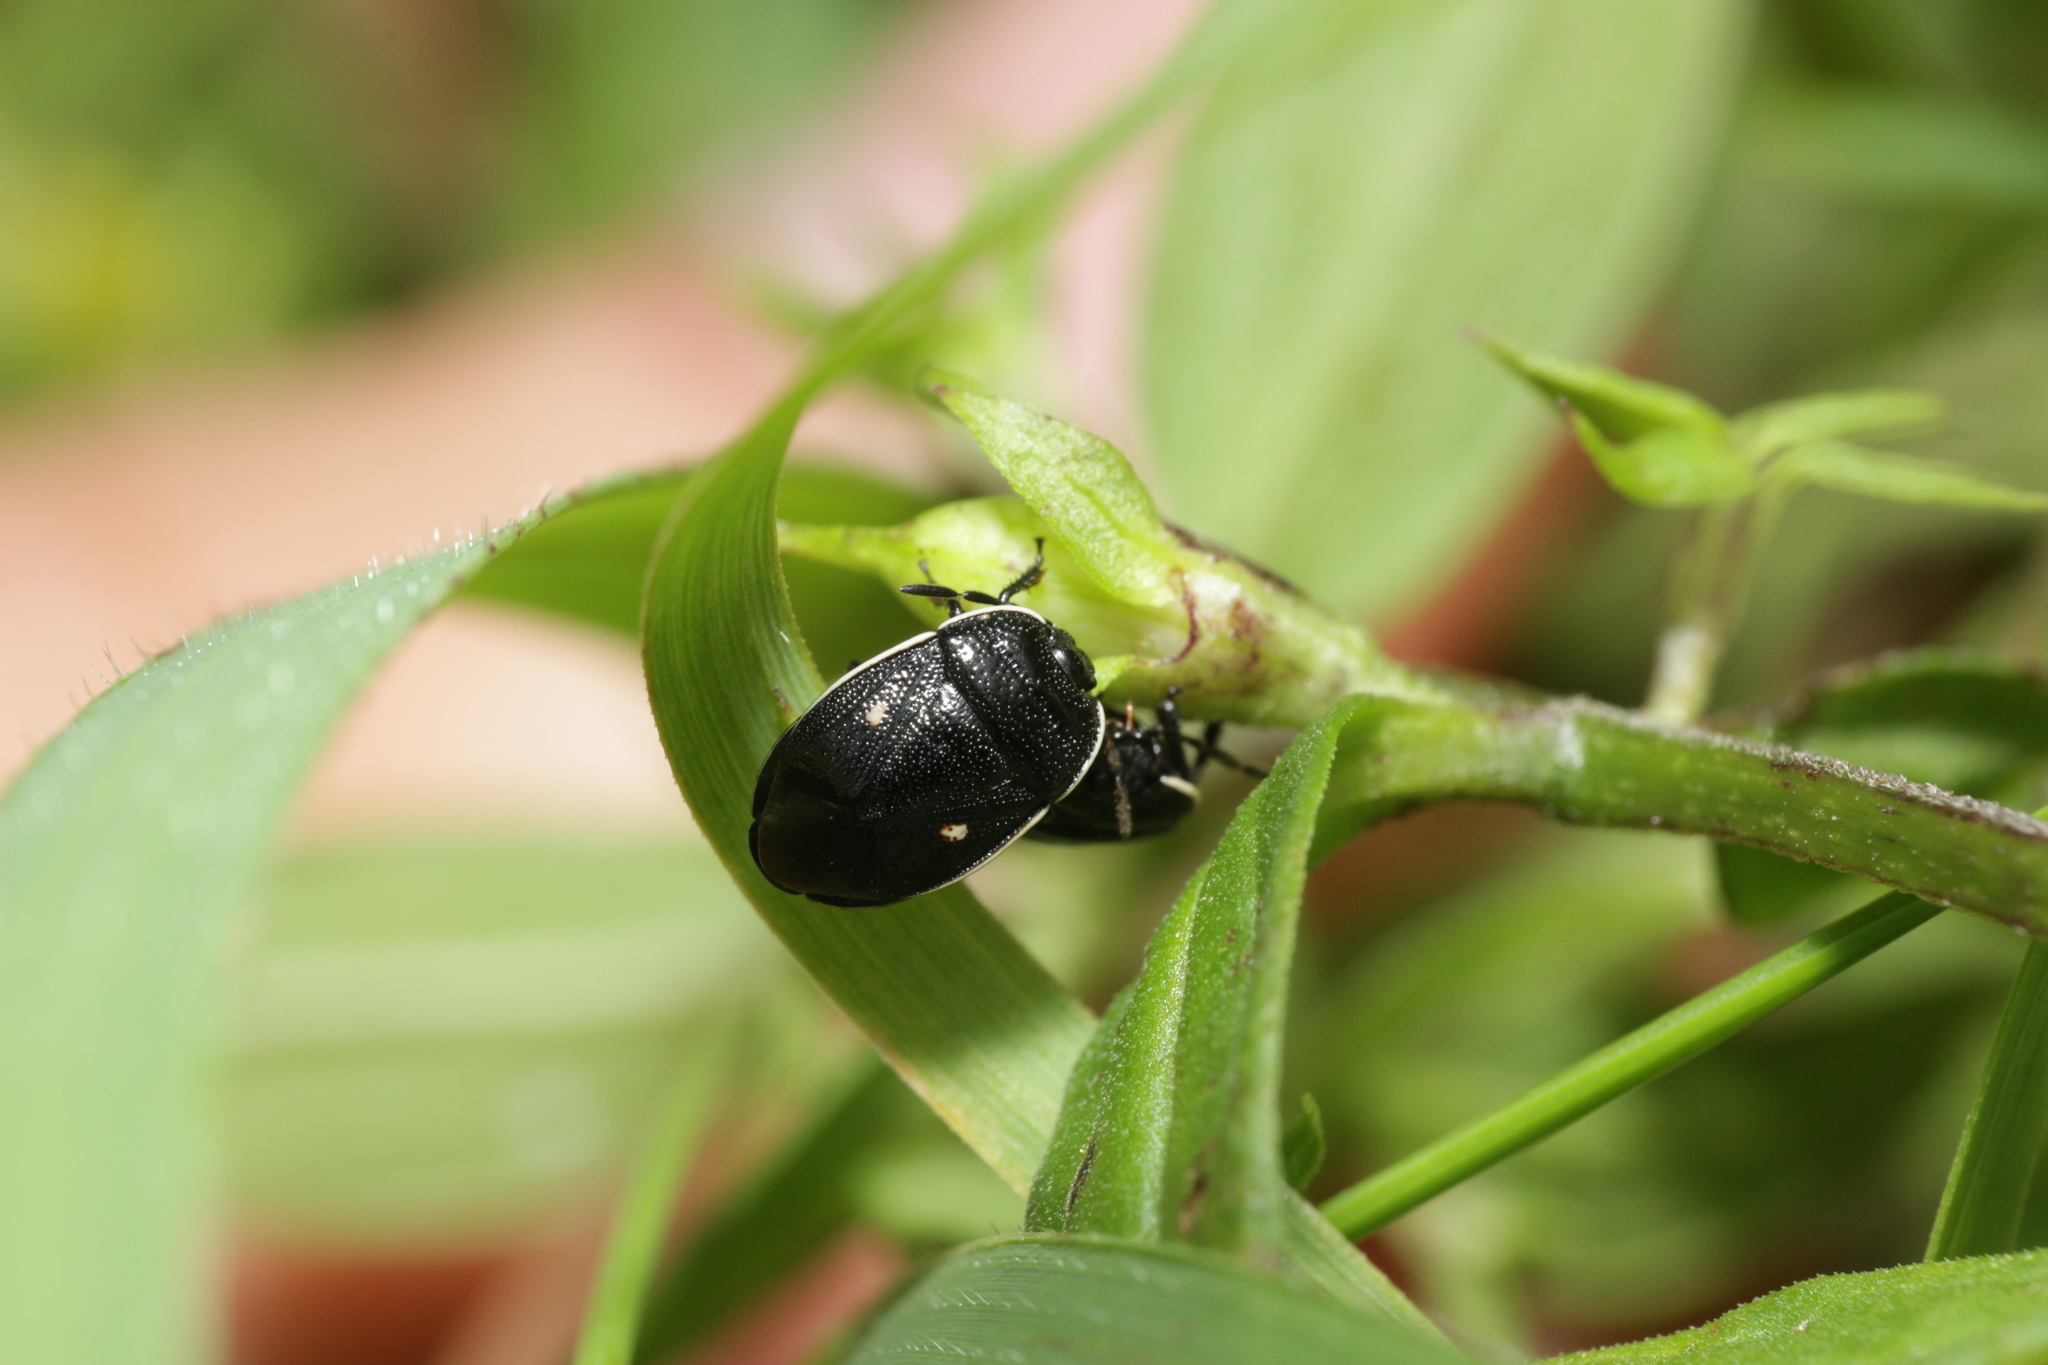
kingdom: Animalia
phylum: Arthropoda
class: Insecta
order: Hemiptera
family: Cydnidae
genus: Adomerus
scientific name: Adomerus biguttatus
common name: Cow wheat shieldbug
